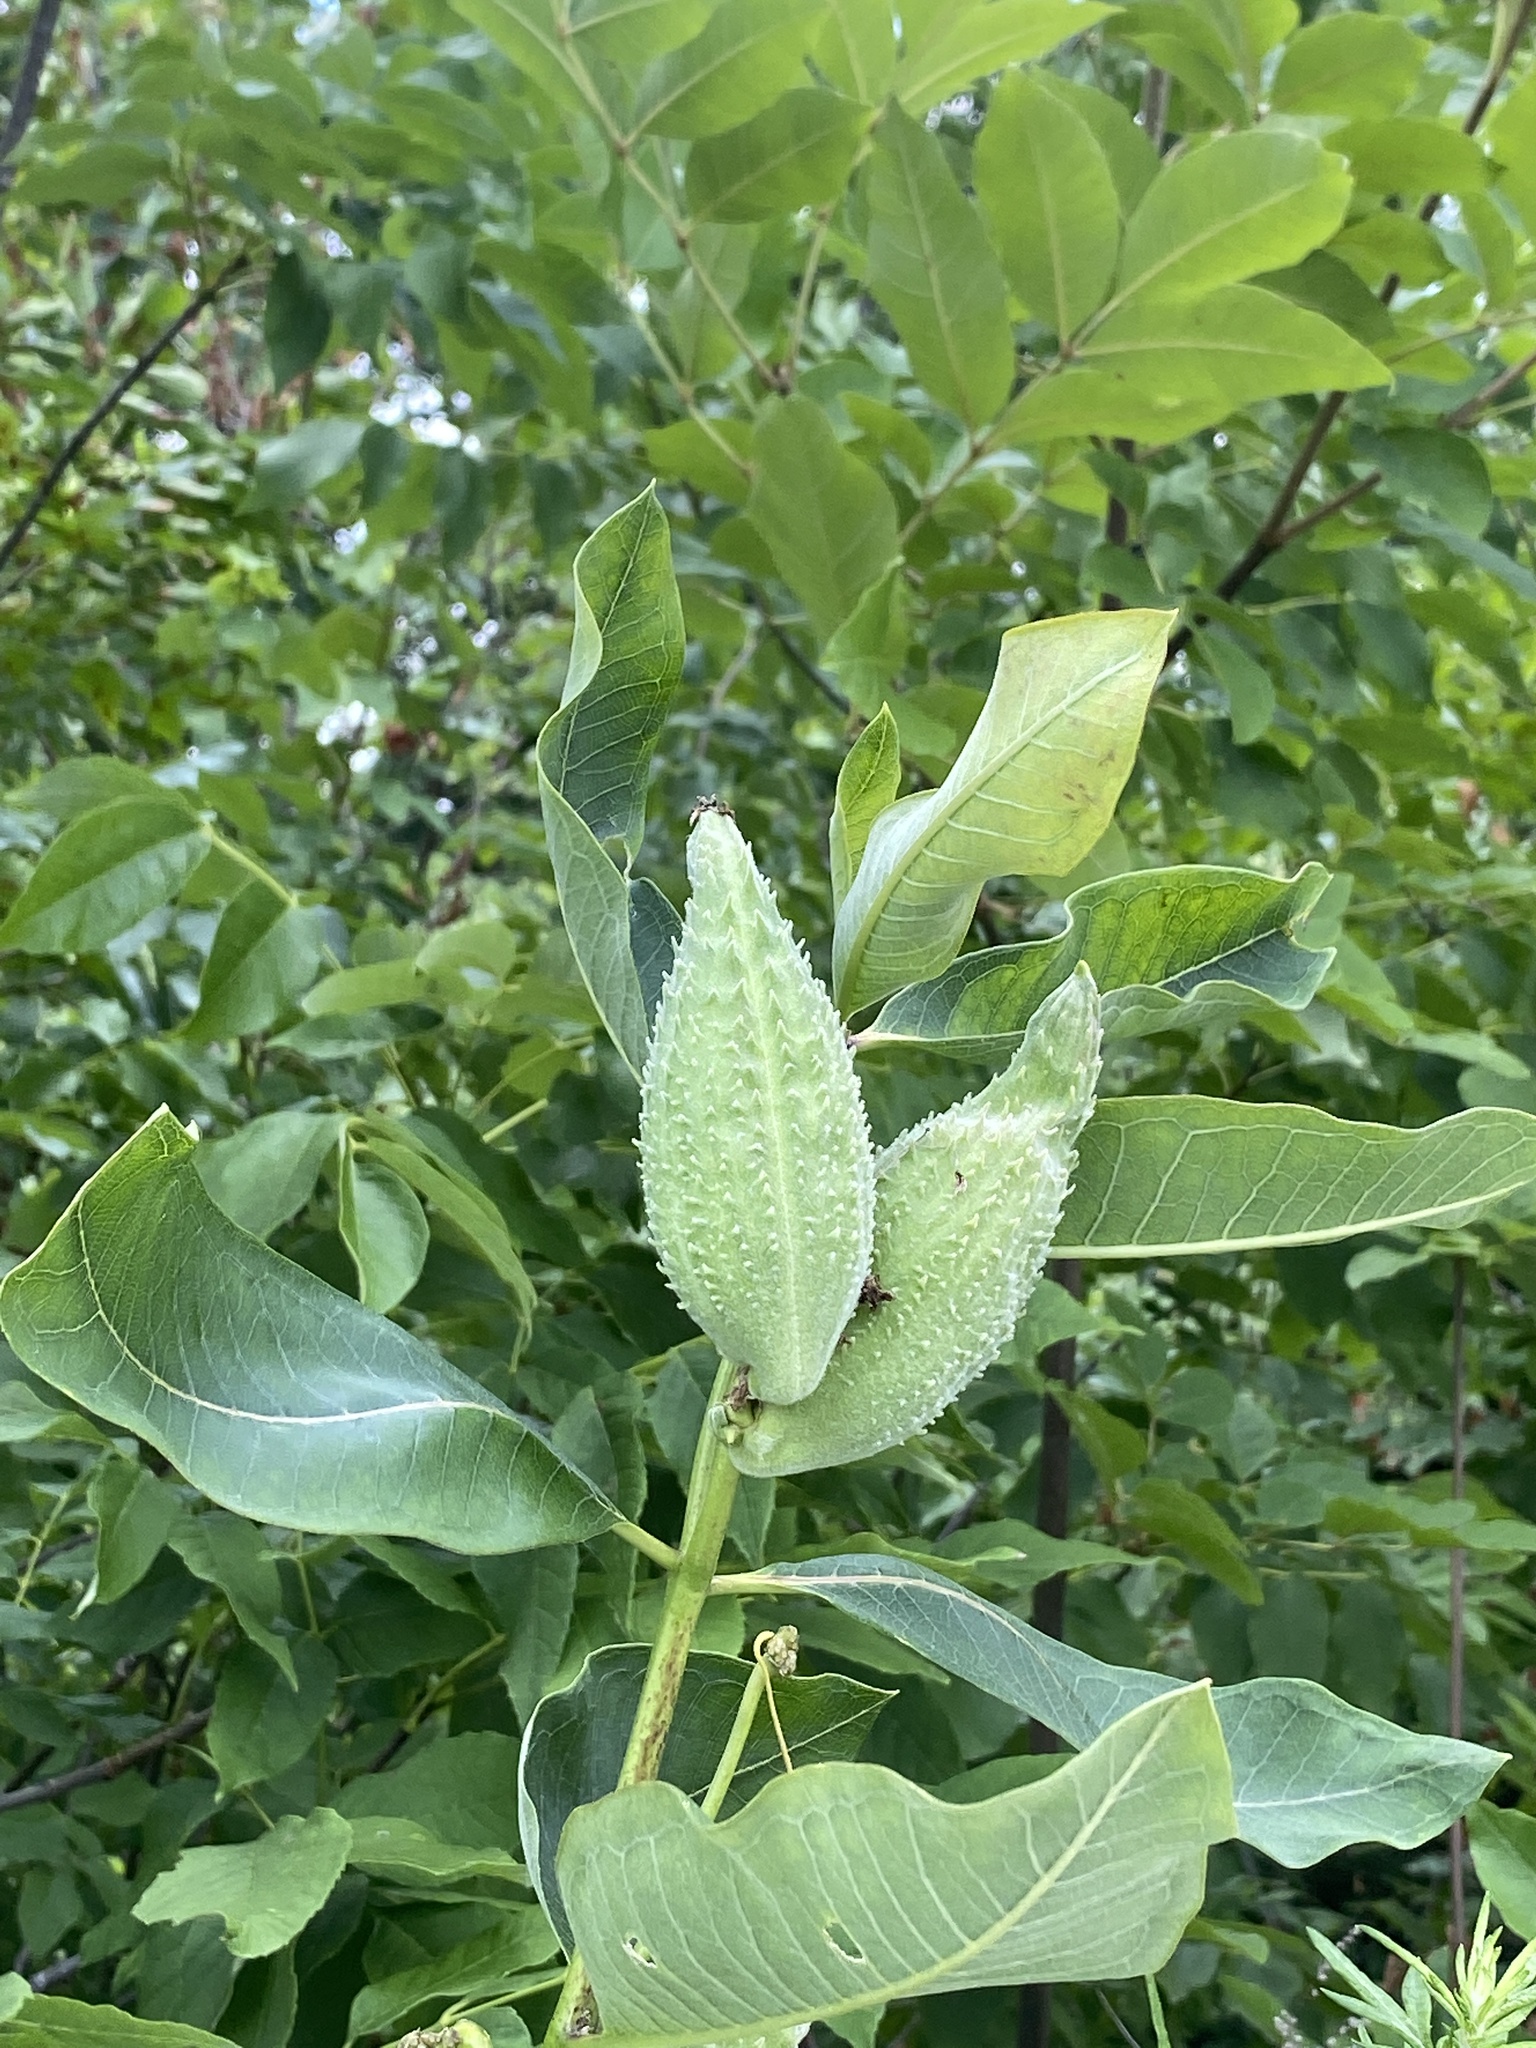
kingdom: Plantae
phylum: Tracheophyta
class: Magnoliopsida
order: Gentianales
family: Apocynaceae
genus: Asclepias
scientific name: Asclepias syriaca
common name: Common milkweed
